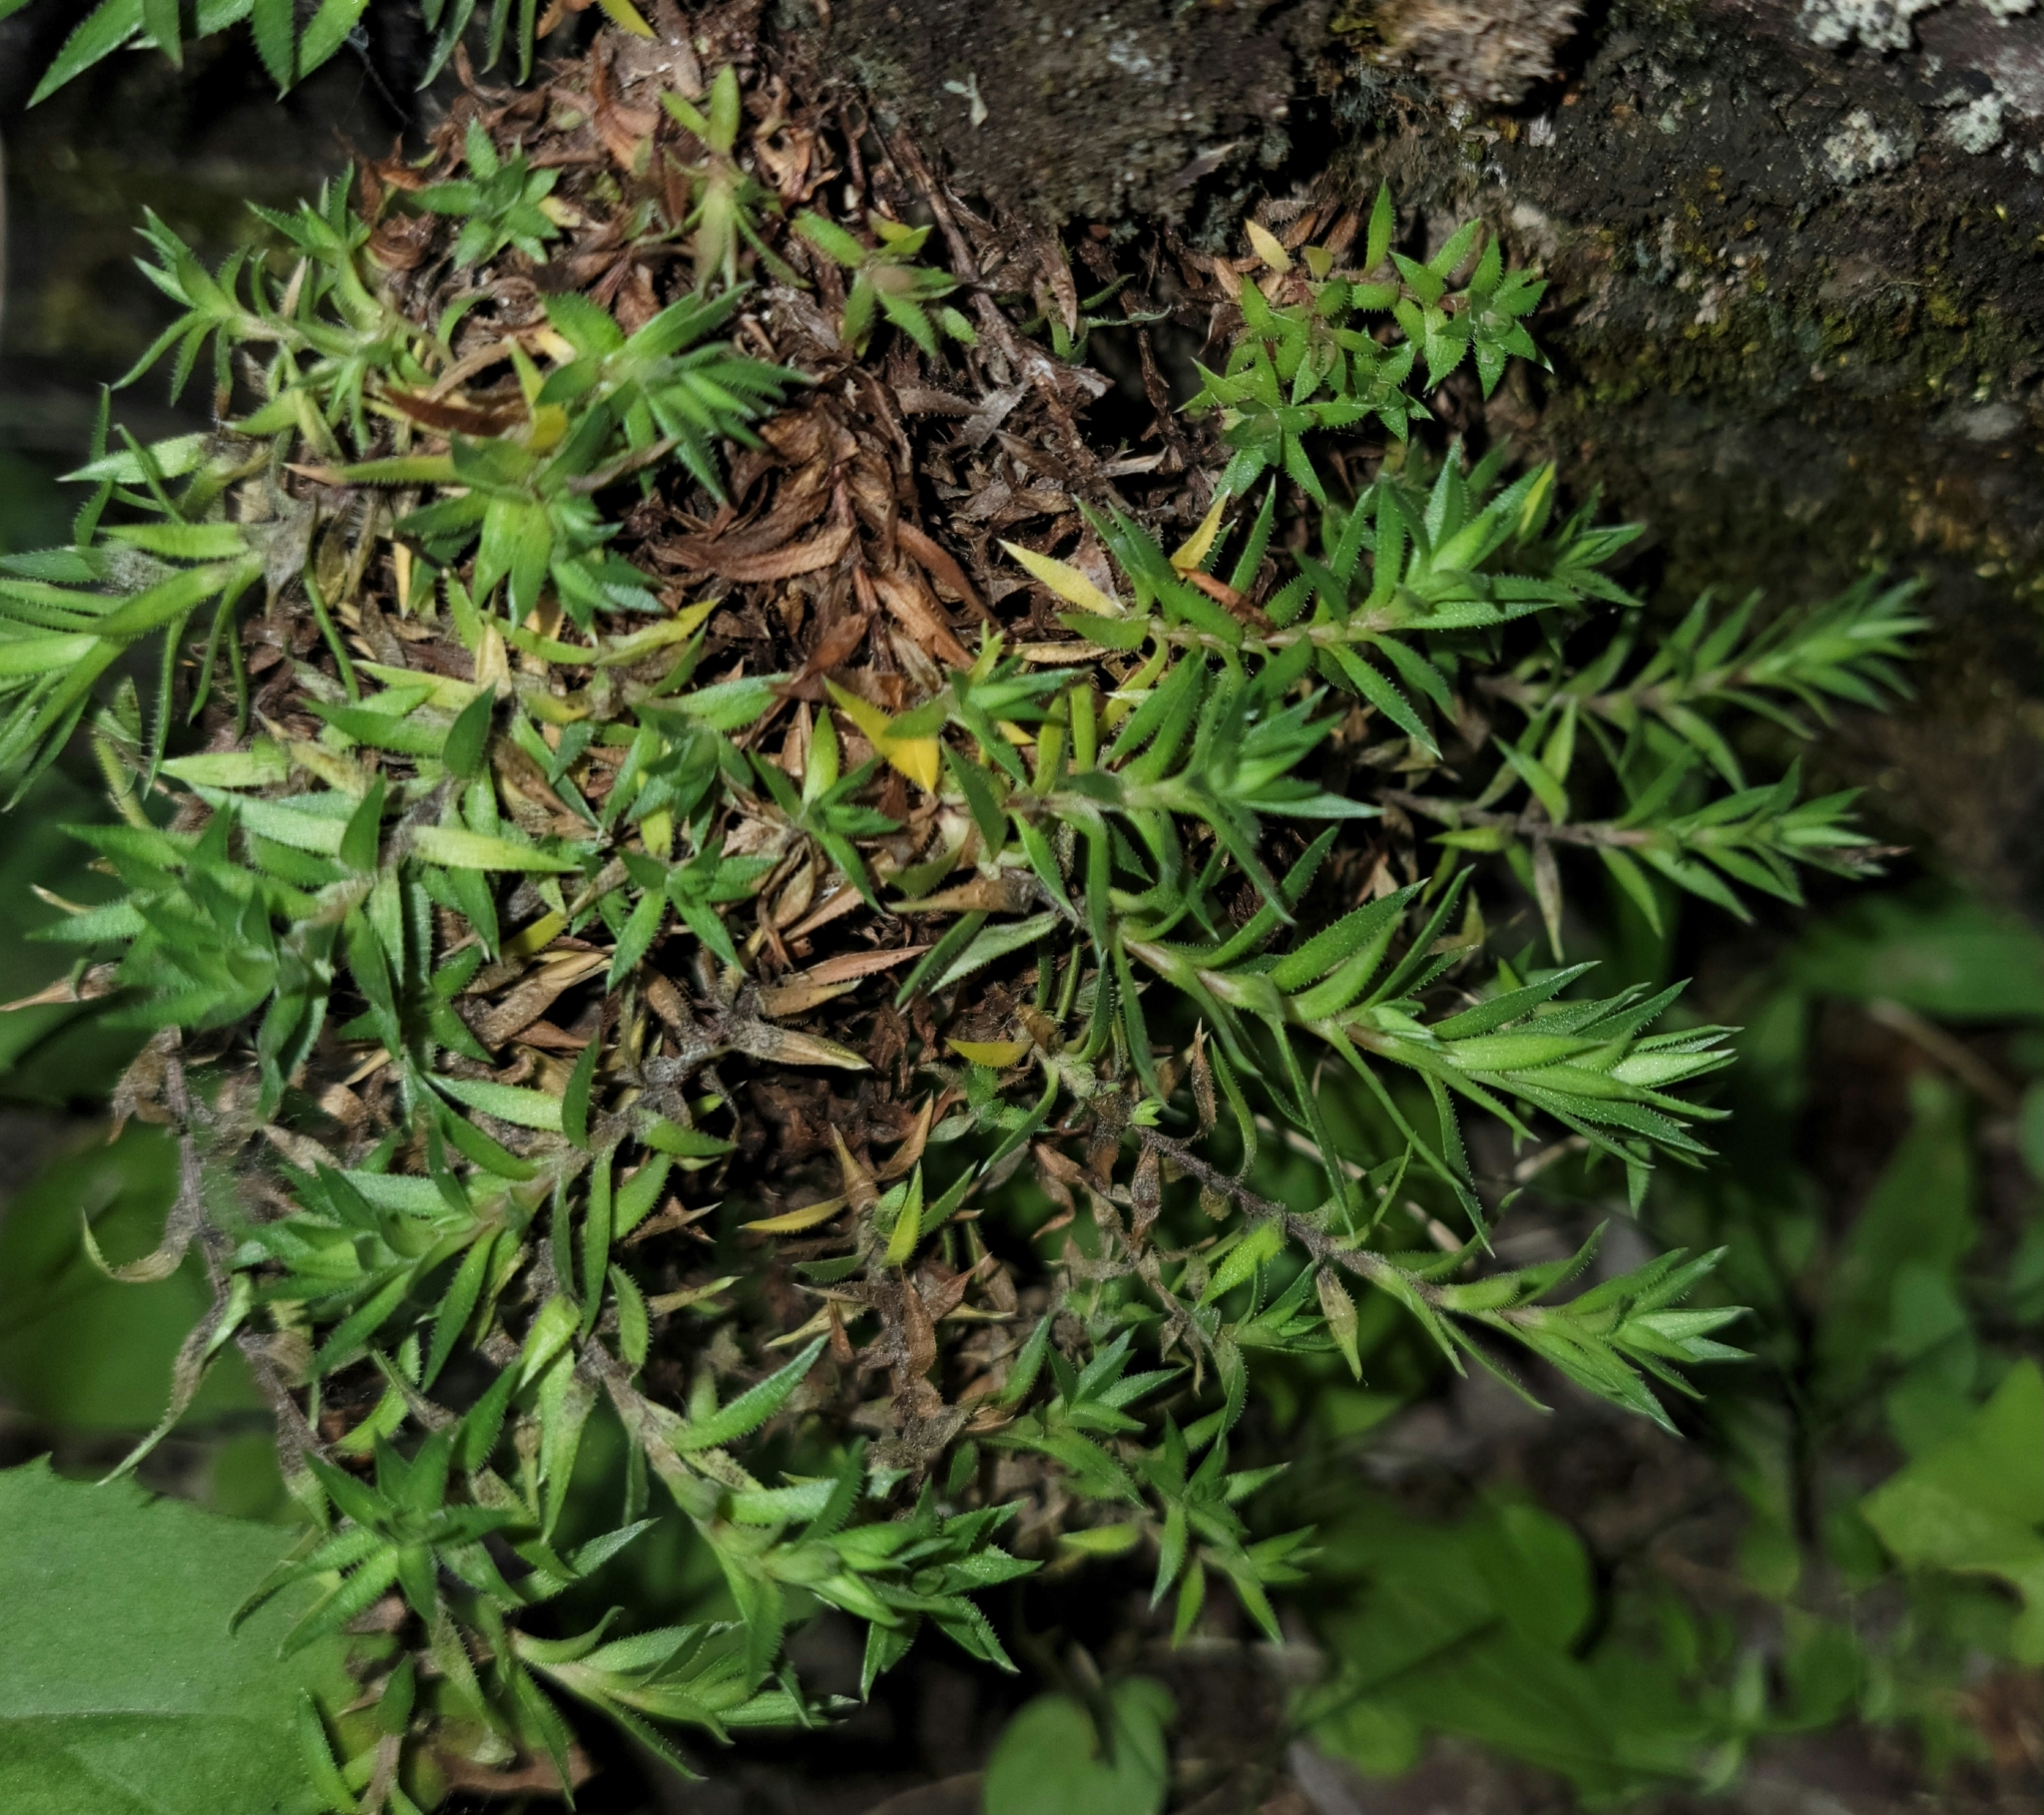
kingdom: Plantae
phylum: Tracheophyta
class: Magnoliopsida
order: Saxifragales
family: Saxifragaceae
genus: Saxifraga
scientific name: Saxifraga bronchialis
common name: Matted saxifrage
